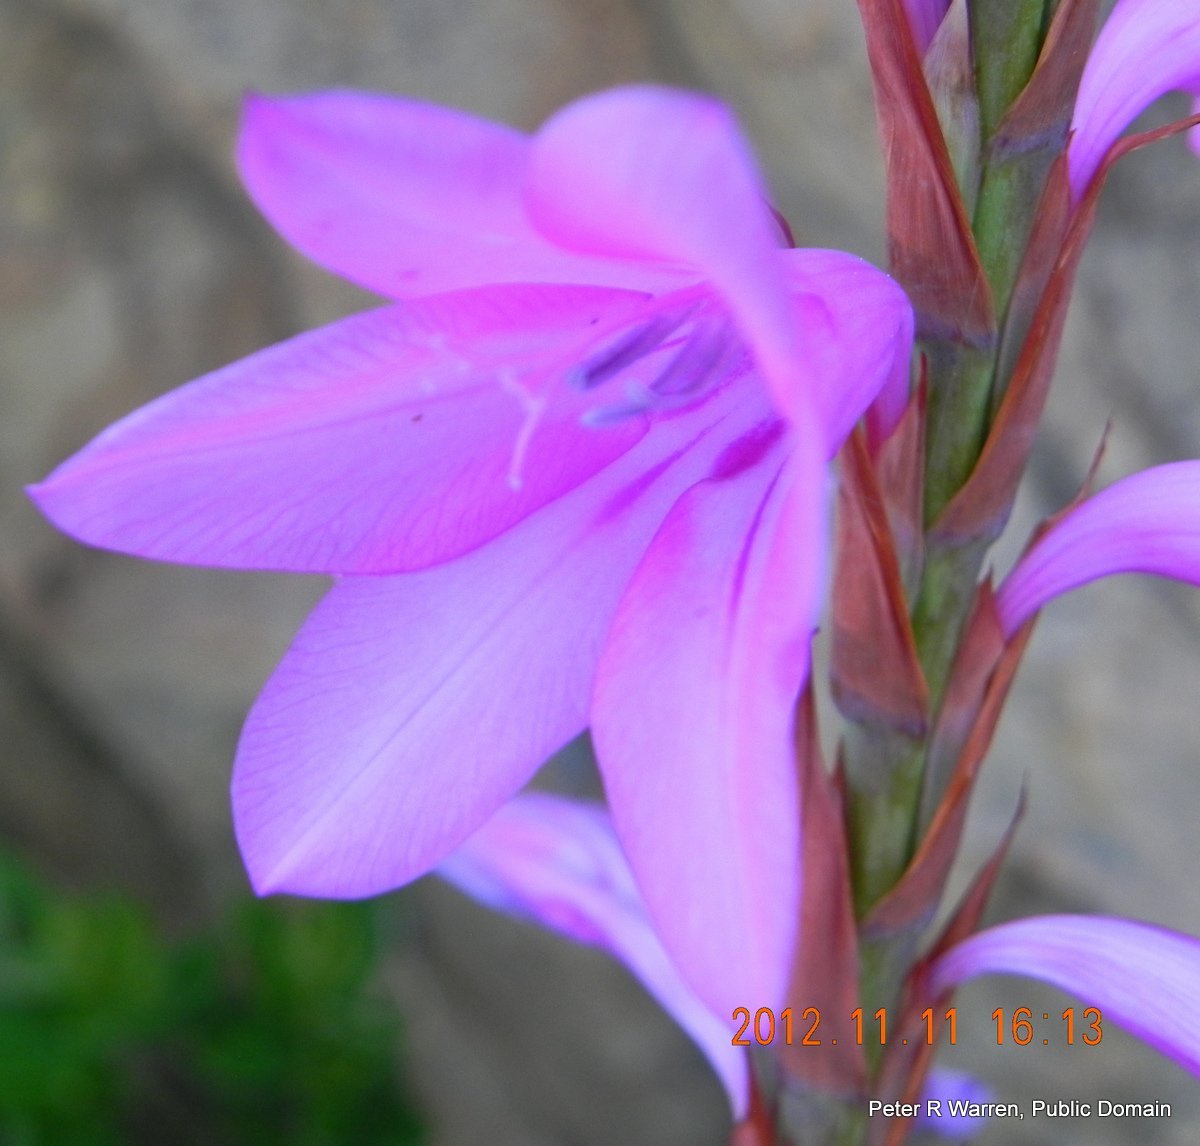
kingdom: Plantae
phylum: Tracheophyta
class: Liliopsida
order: Asparagales
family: Iridaceae
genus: Watsonia
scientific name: Watsonia confusa
